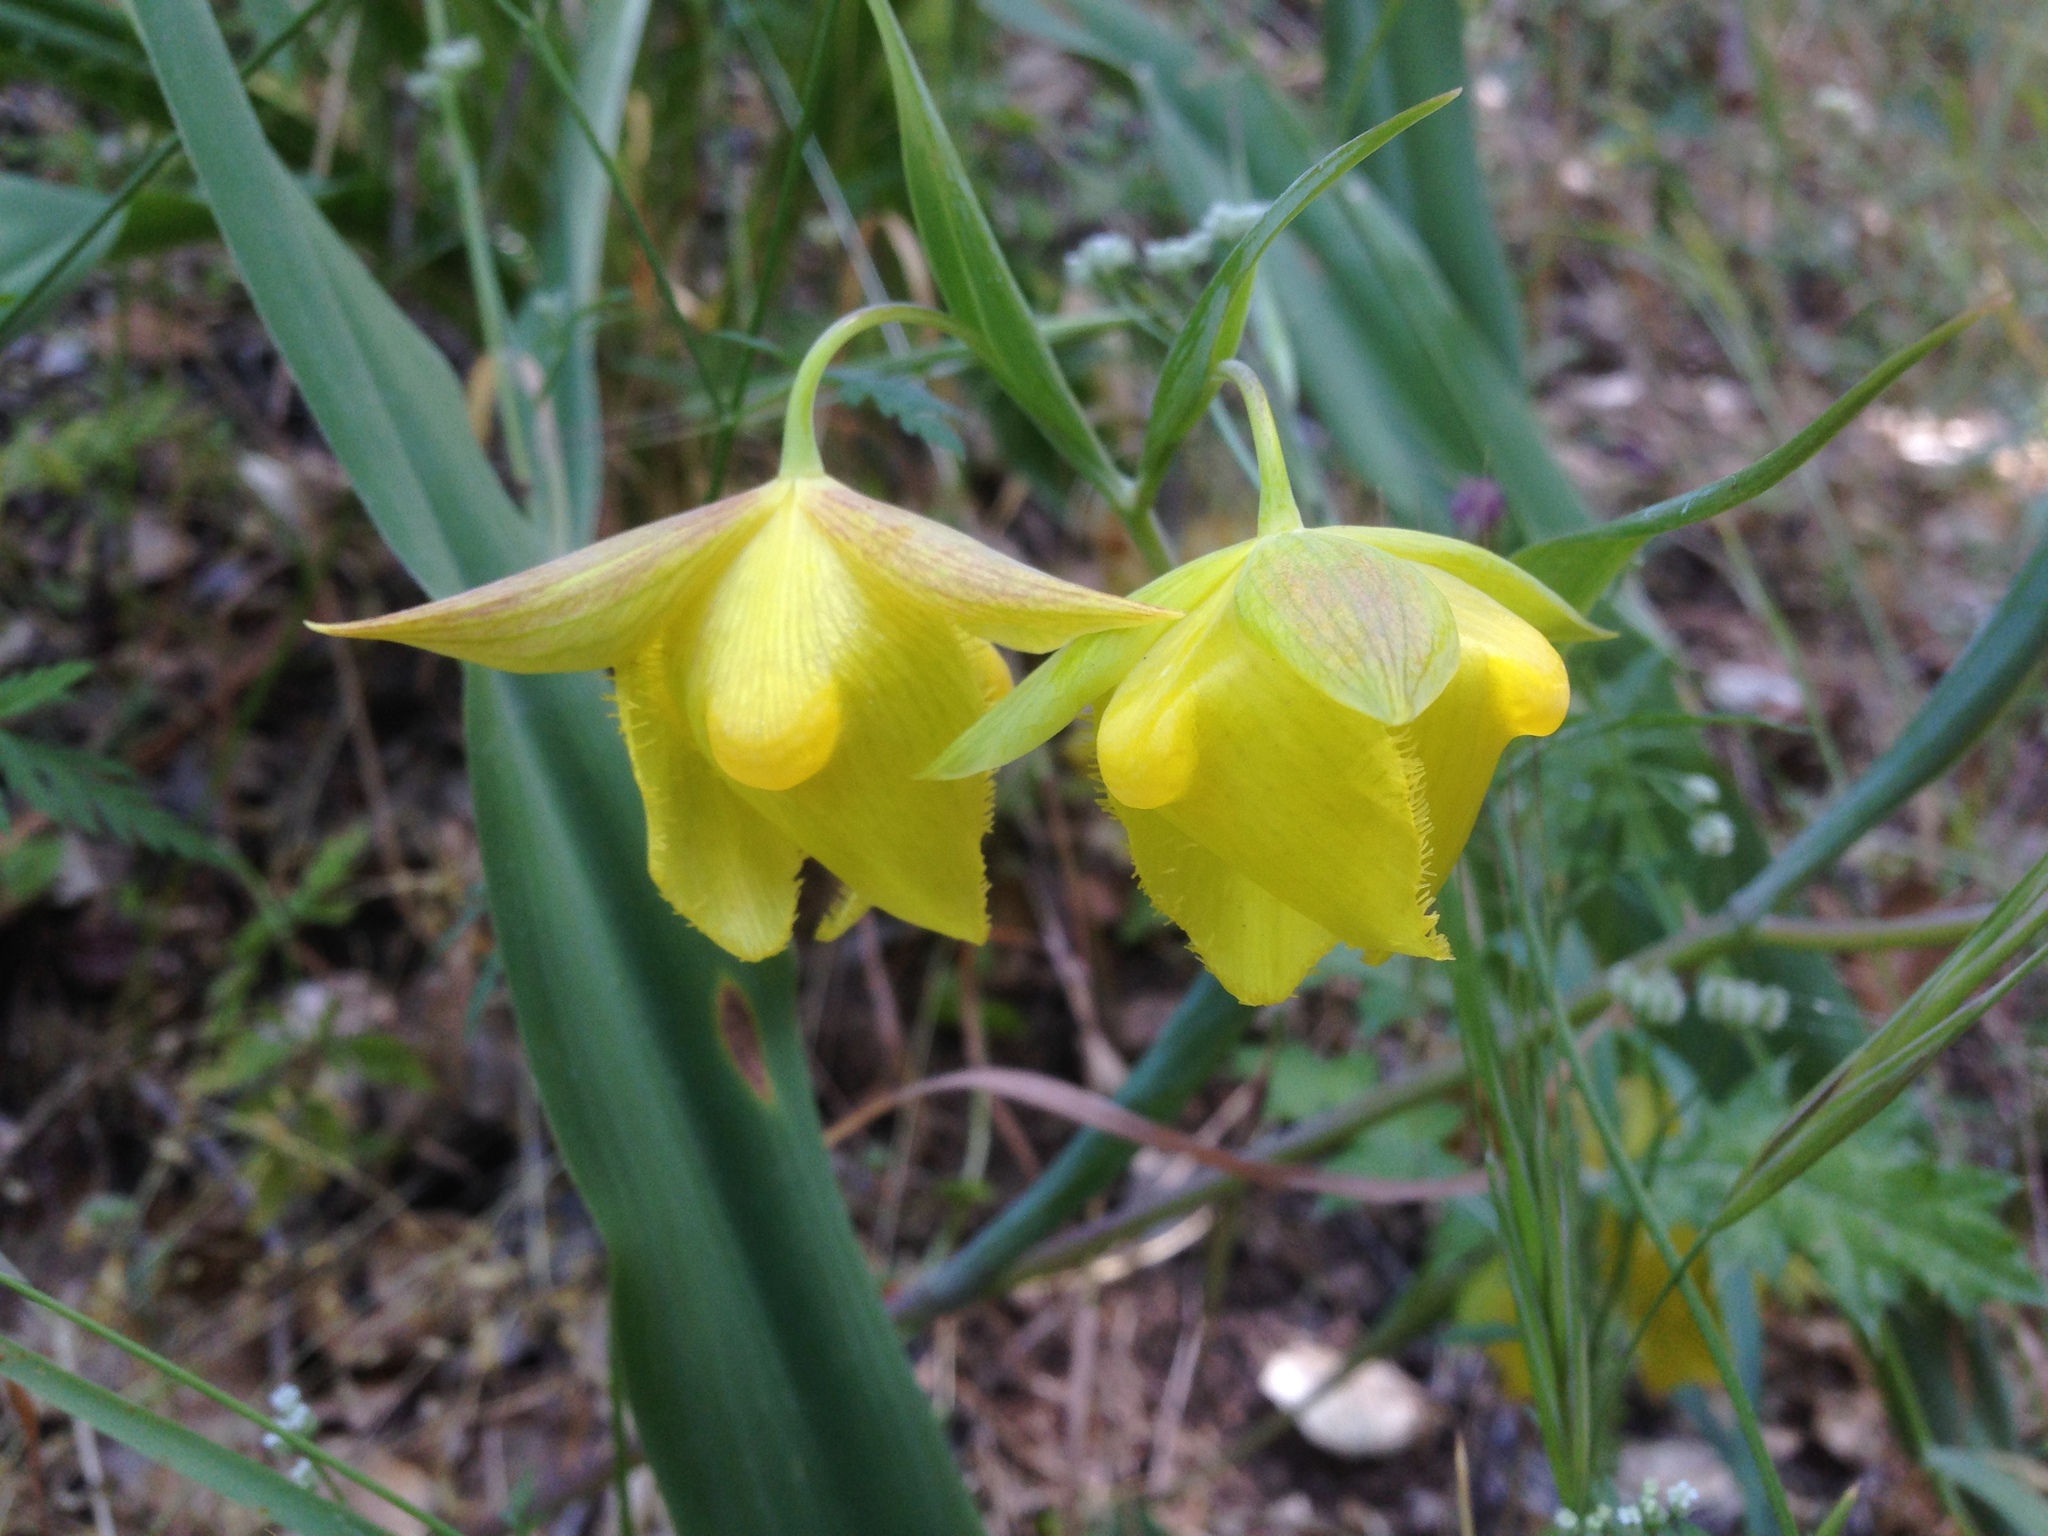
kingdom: Plantae
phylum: Tracheophyta
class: Liliopsida
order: Liliales
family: Liliaceae
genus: Calochortus
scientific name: Calochortus pulchellus
